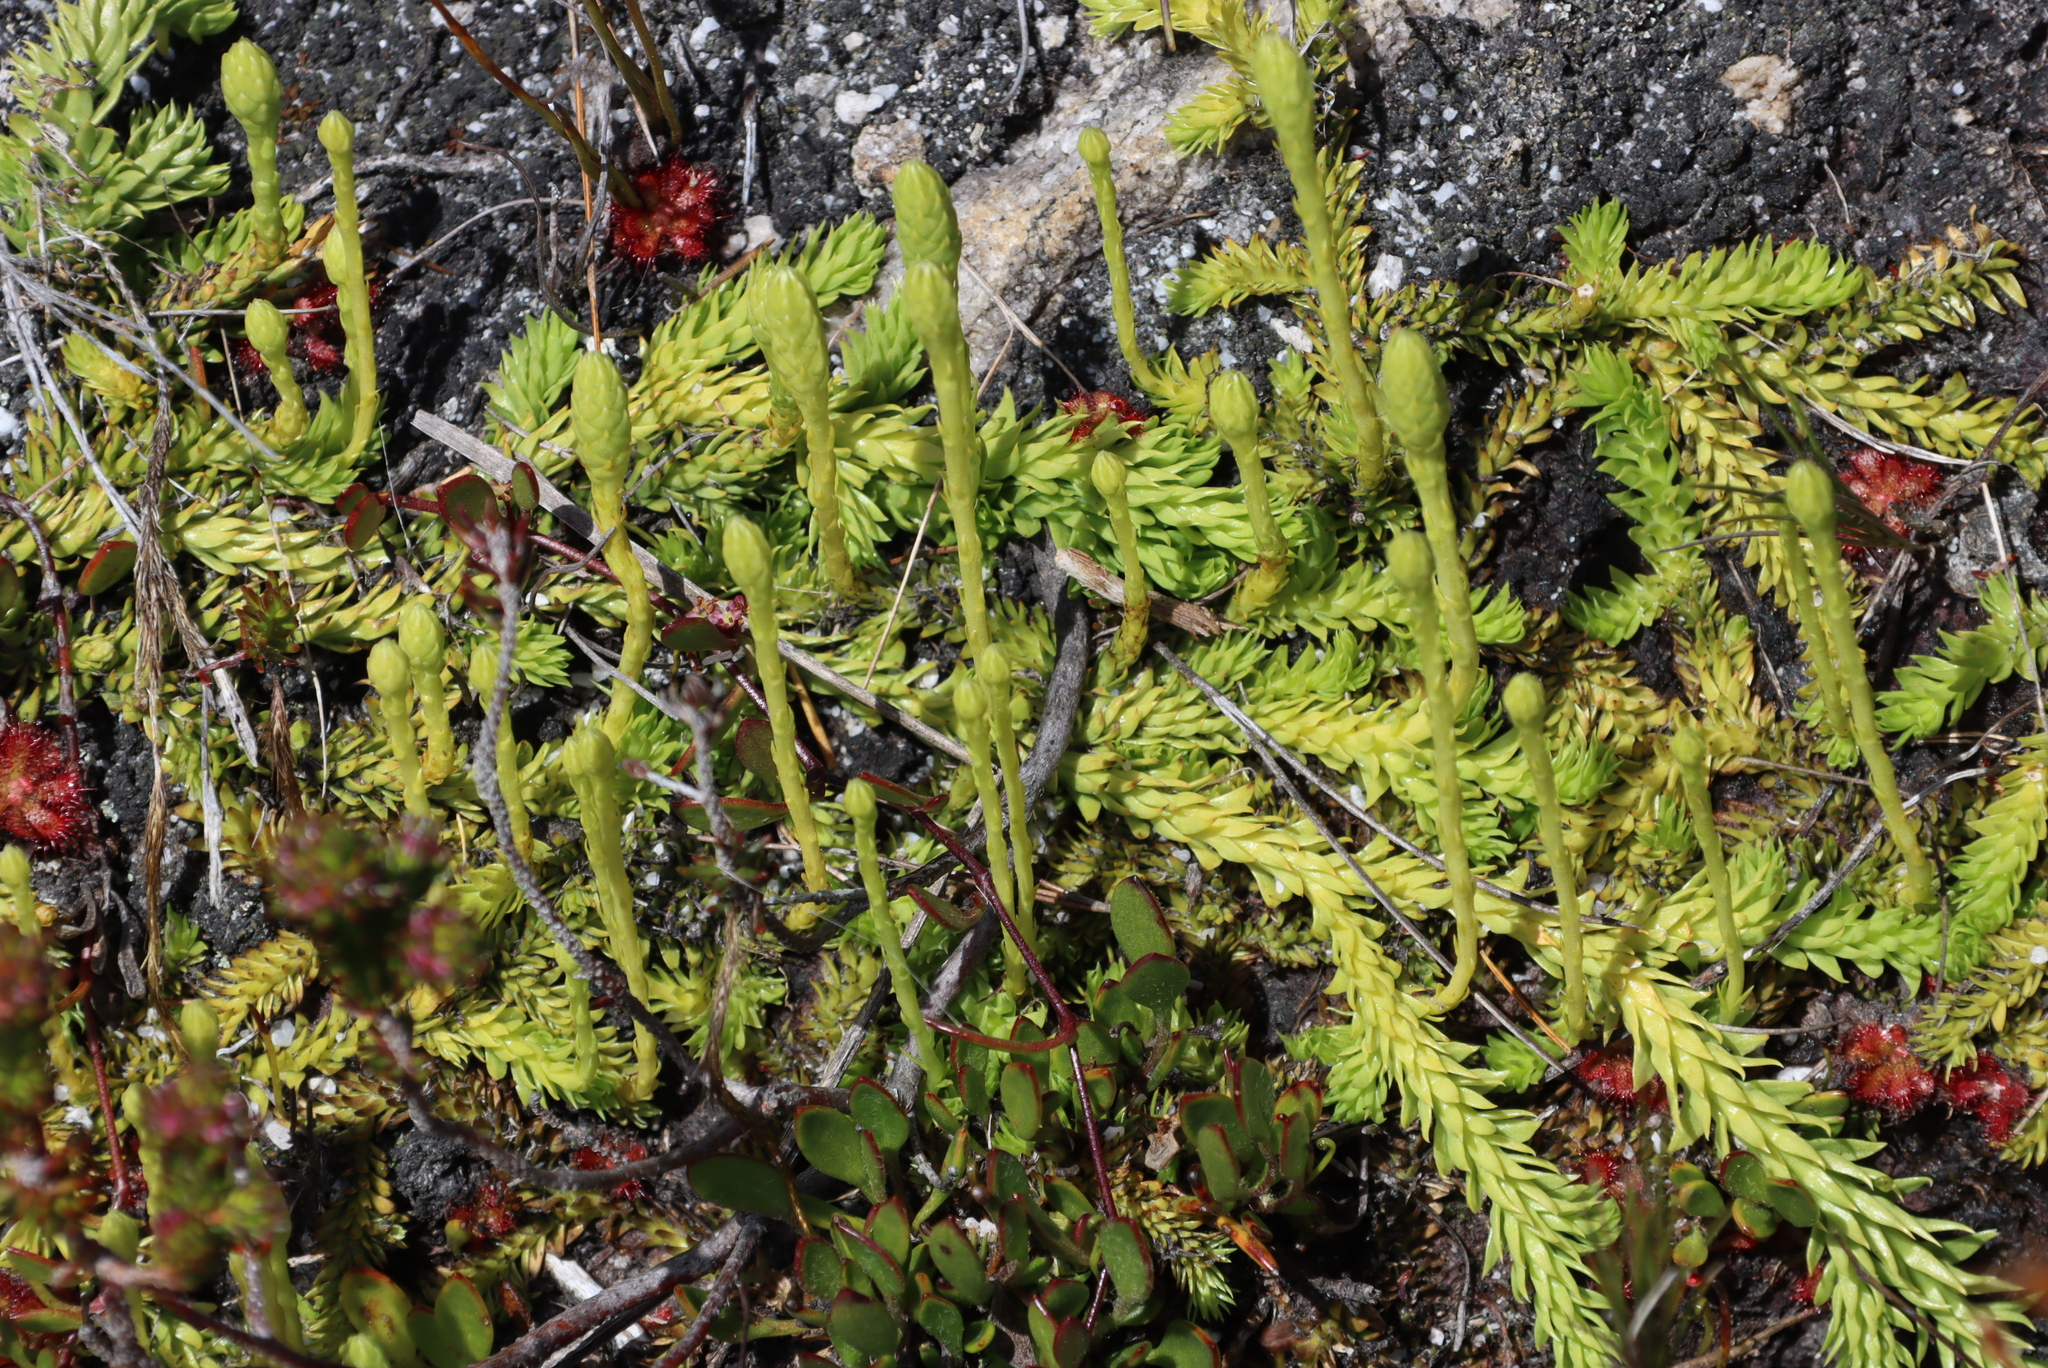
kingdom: Plantae
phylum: Tracheophyta
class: Lycopodiopsida
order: Lycopodiales
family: Lycopodiaceae
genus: Pseudolycopodiella
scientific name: Pseudolycopodiella caroliniana
